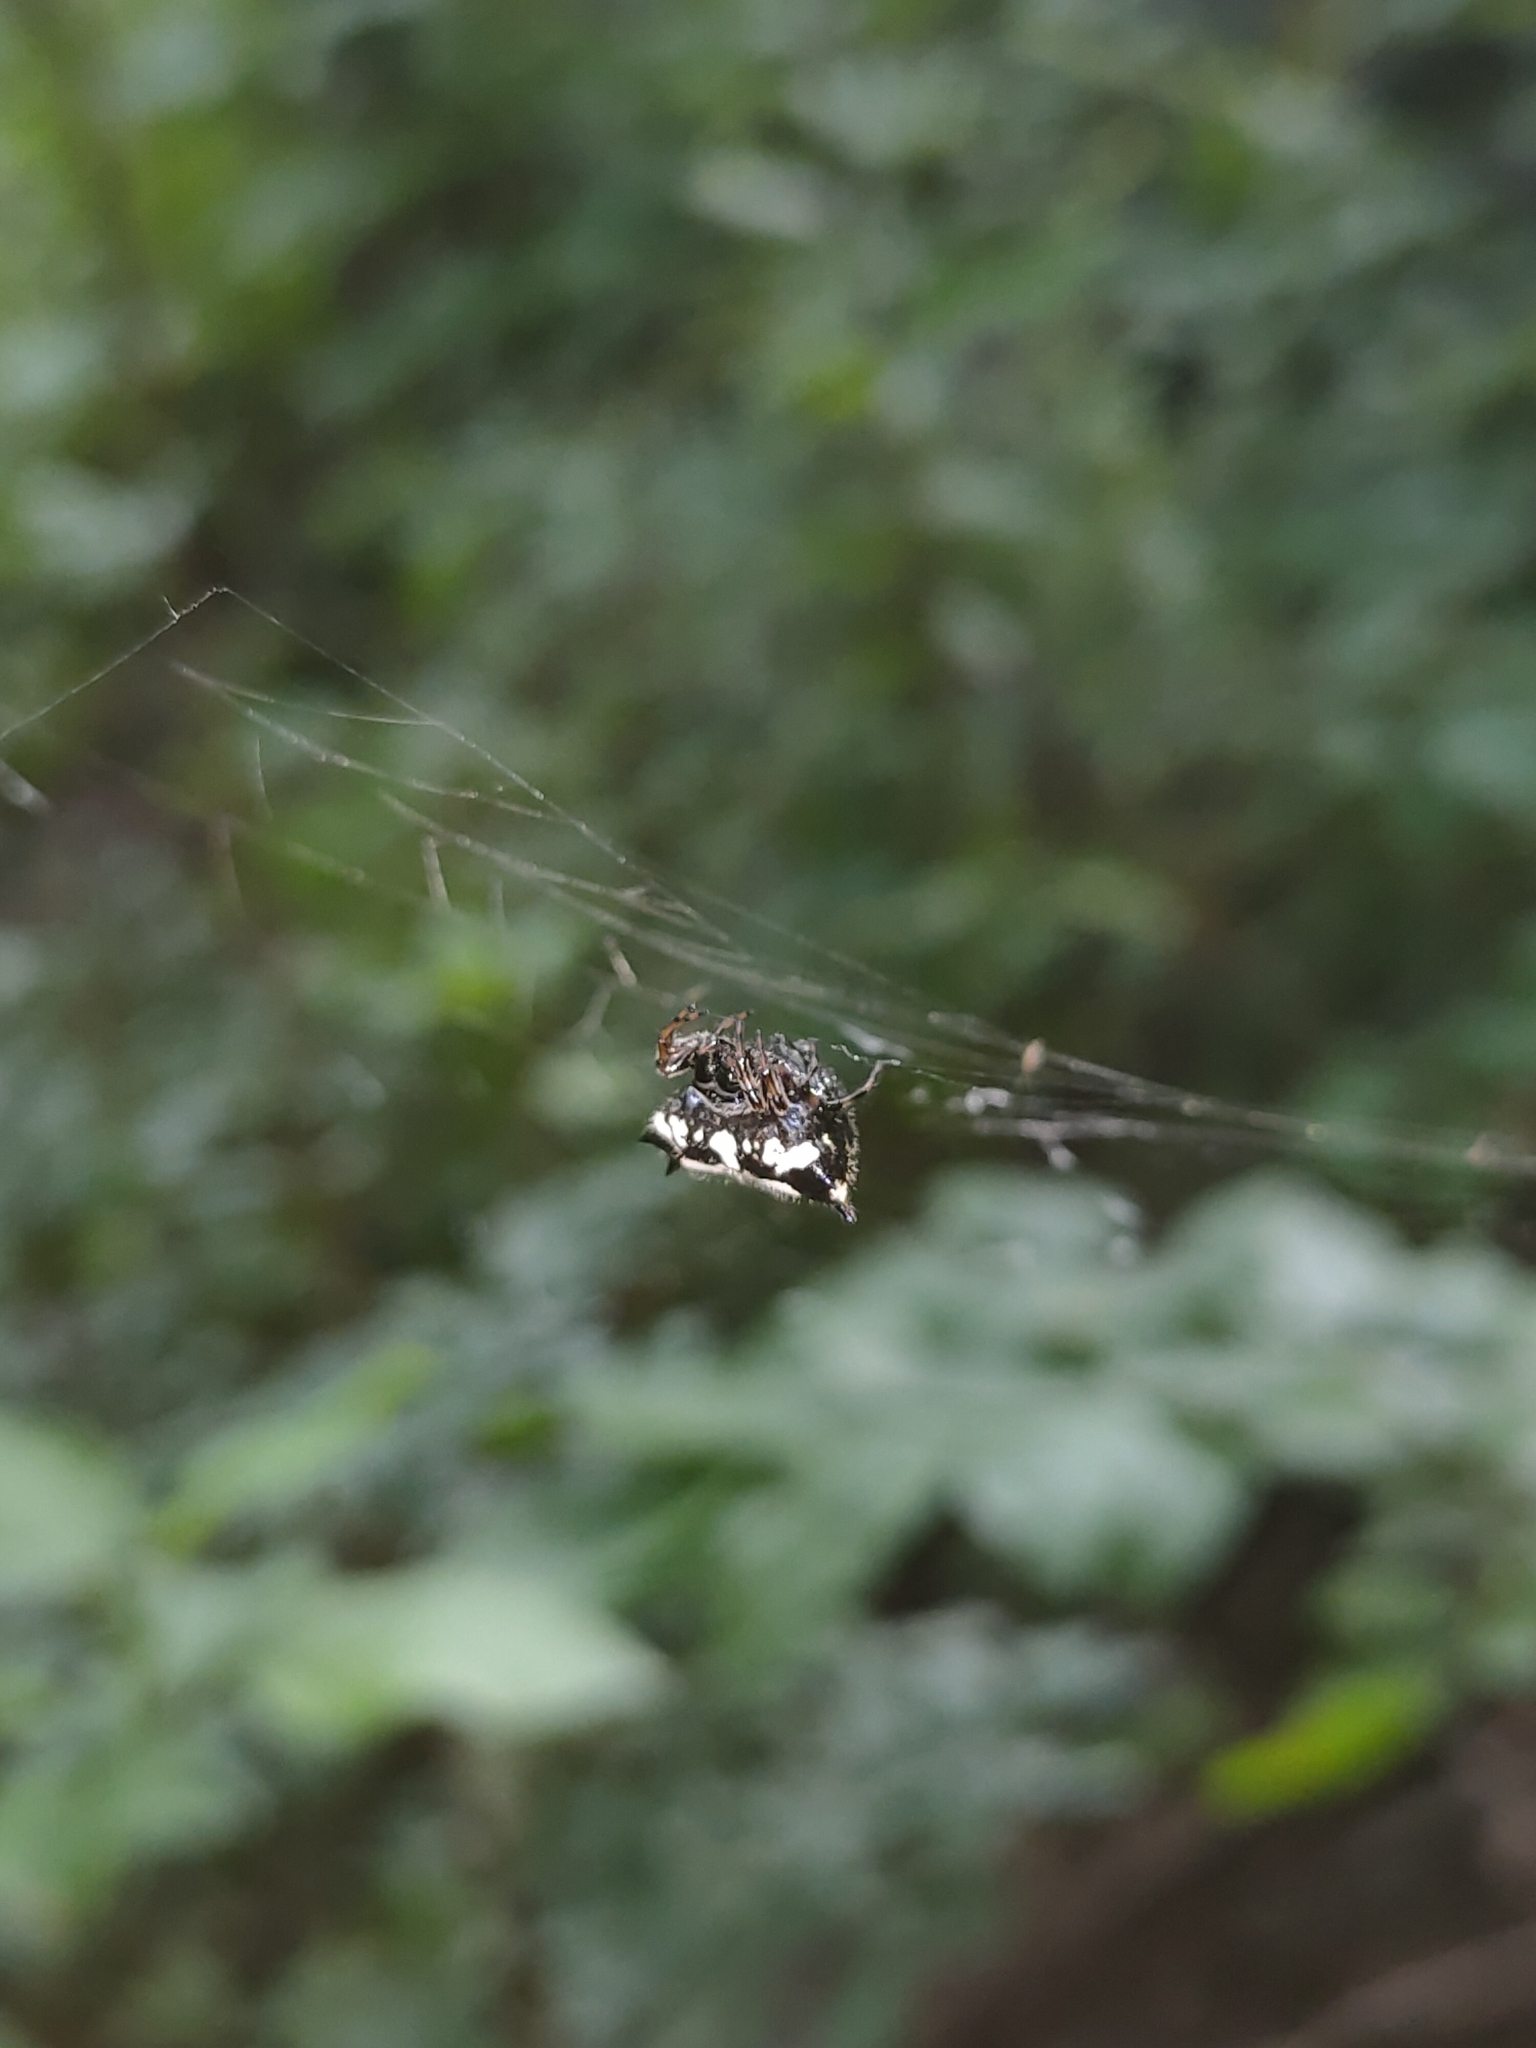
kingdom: Animalia
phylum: Arthropoda
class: Arachnida
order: Araneae
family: Araneidae
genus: Gasteracantha
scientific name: Gasteracantha kuhli
